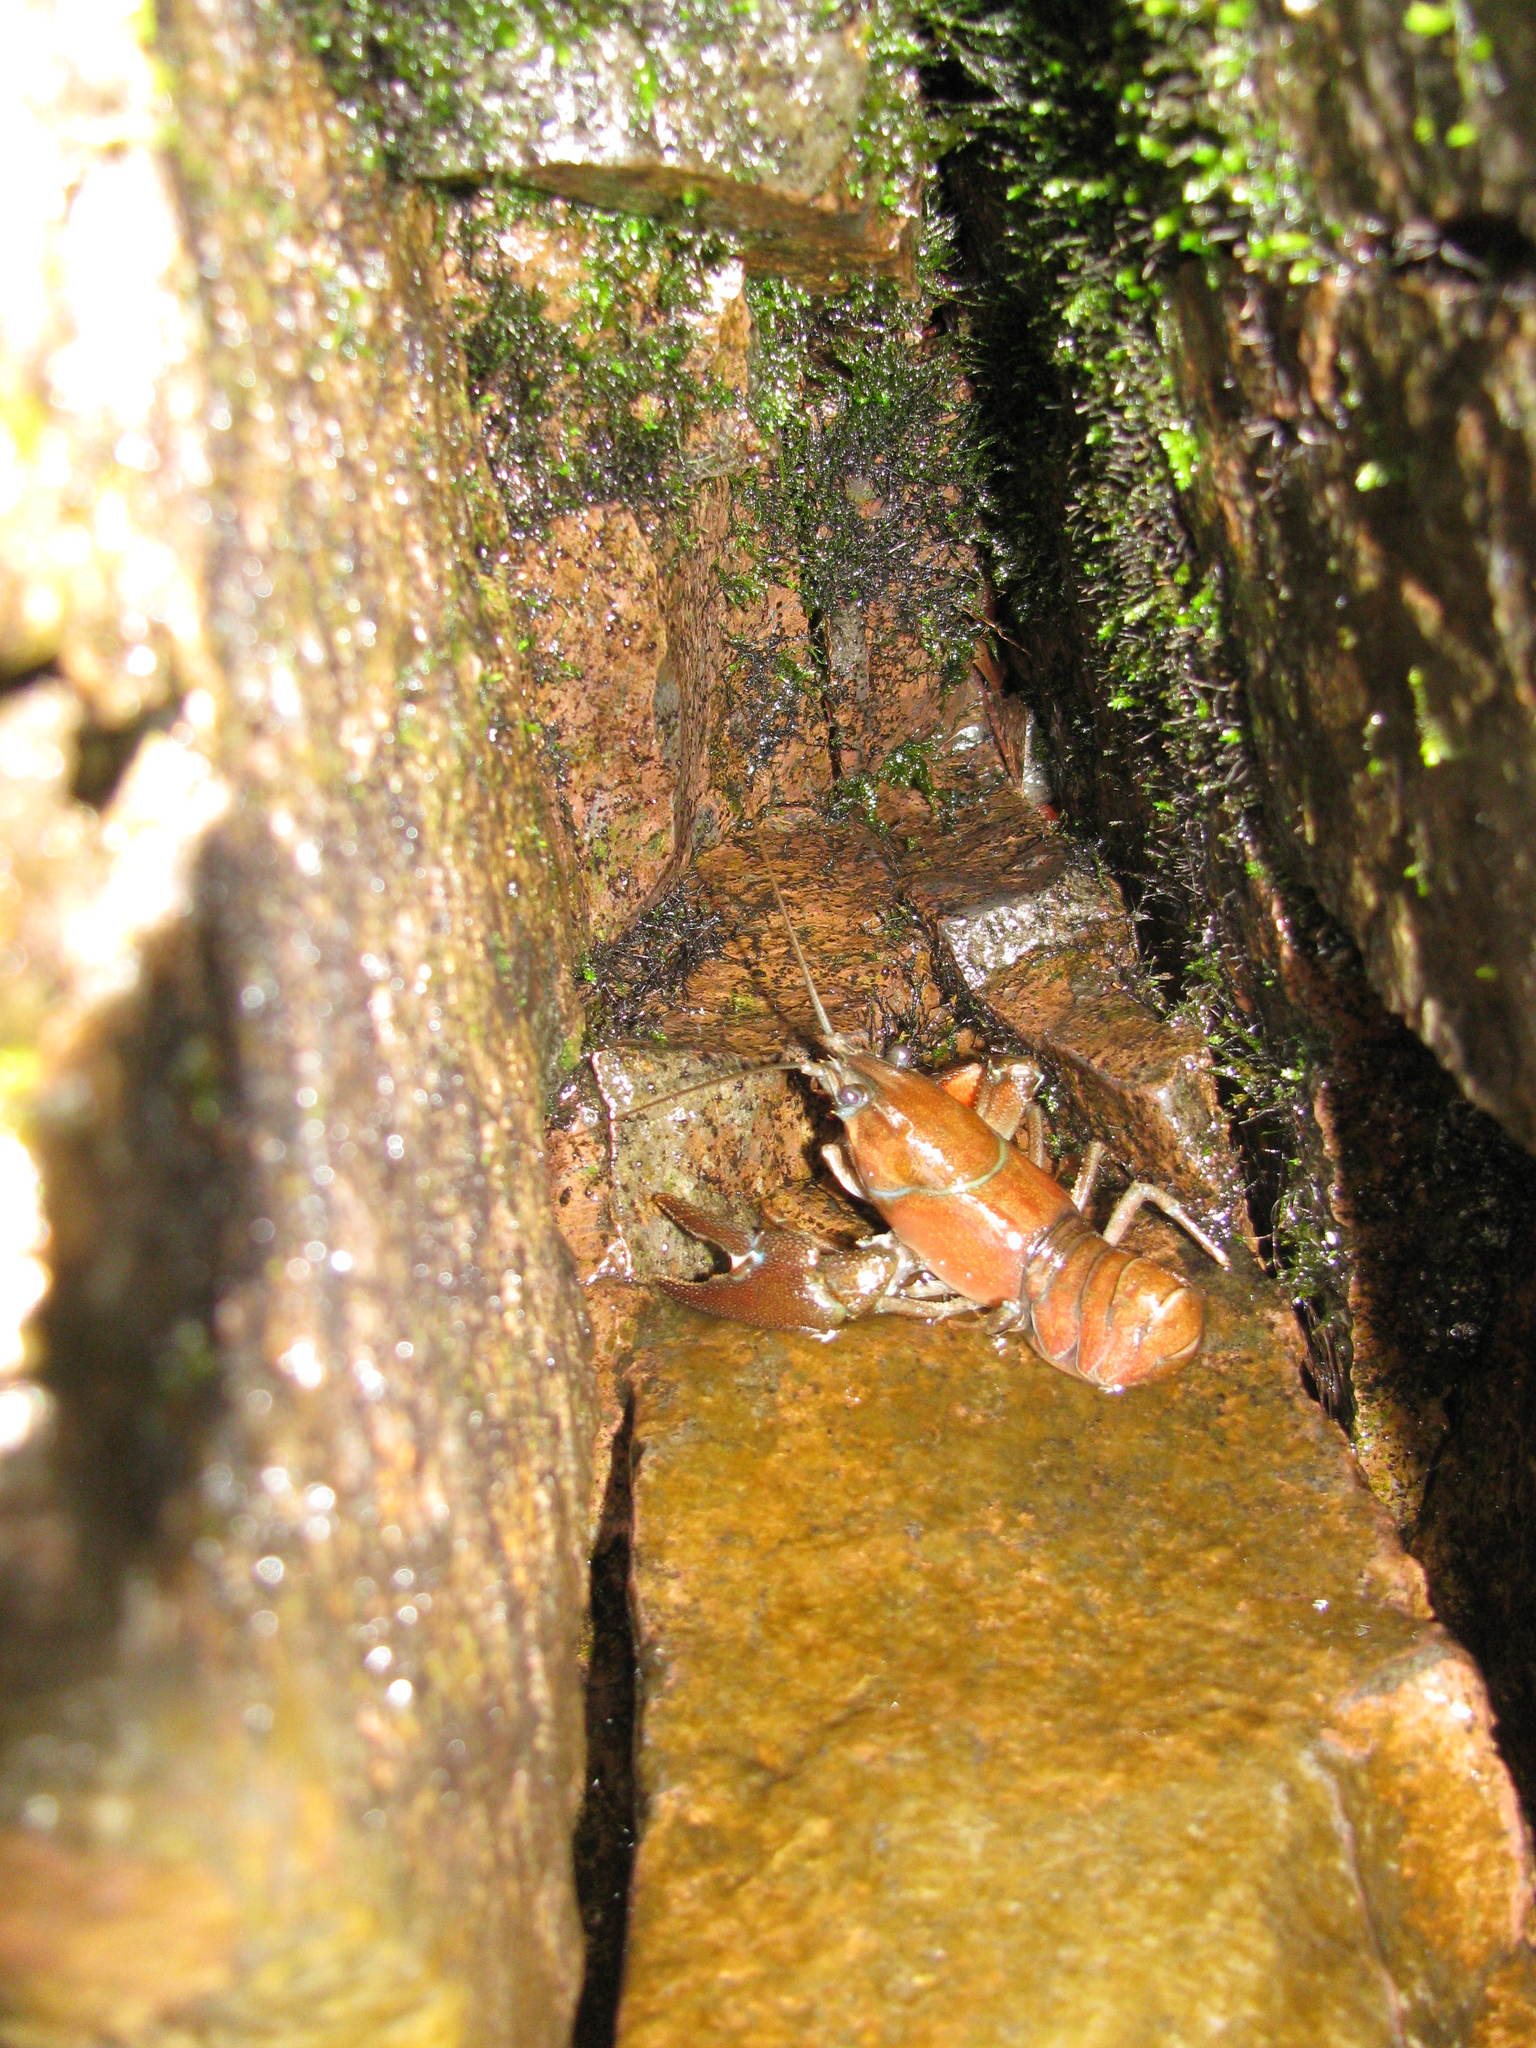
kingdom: Animalia
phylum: Arthropoda
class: Malacostraca
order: Decapoda
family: Astacidae
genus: Pacifastacus
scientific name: Pacifastacus leniusculus
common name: Signal crayfish
